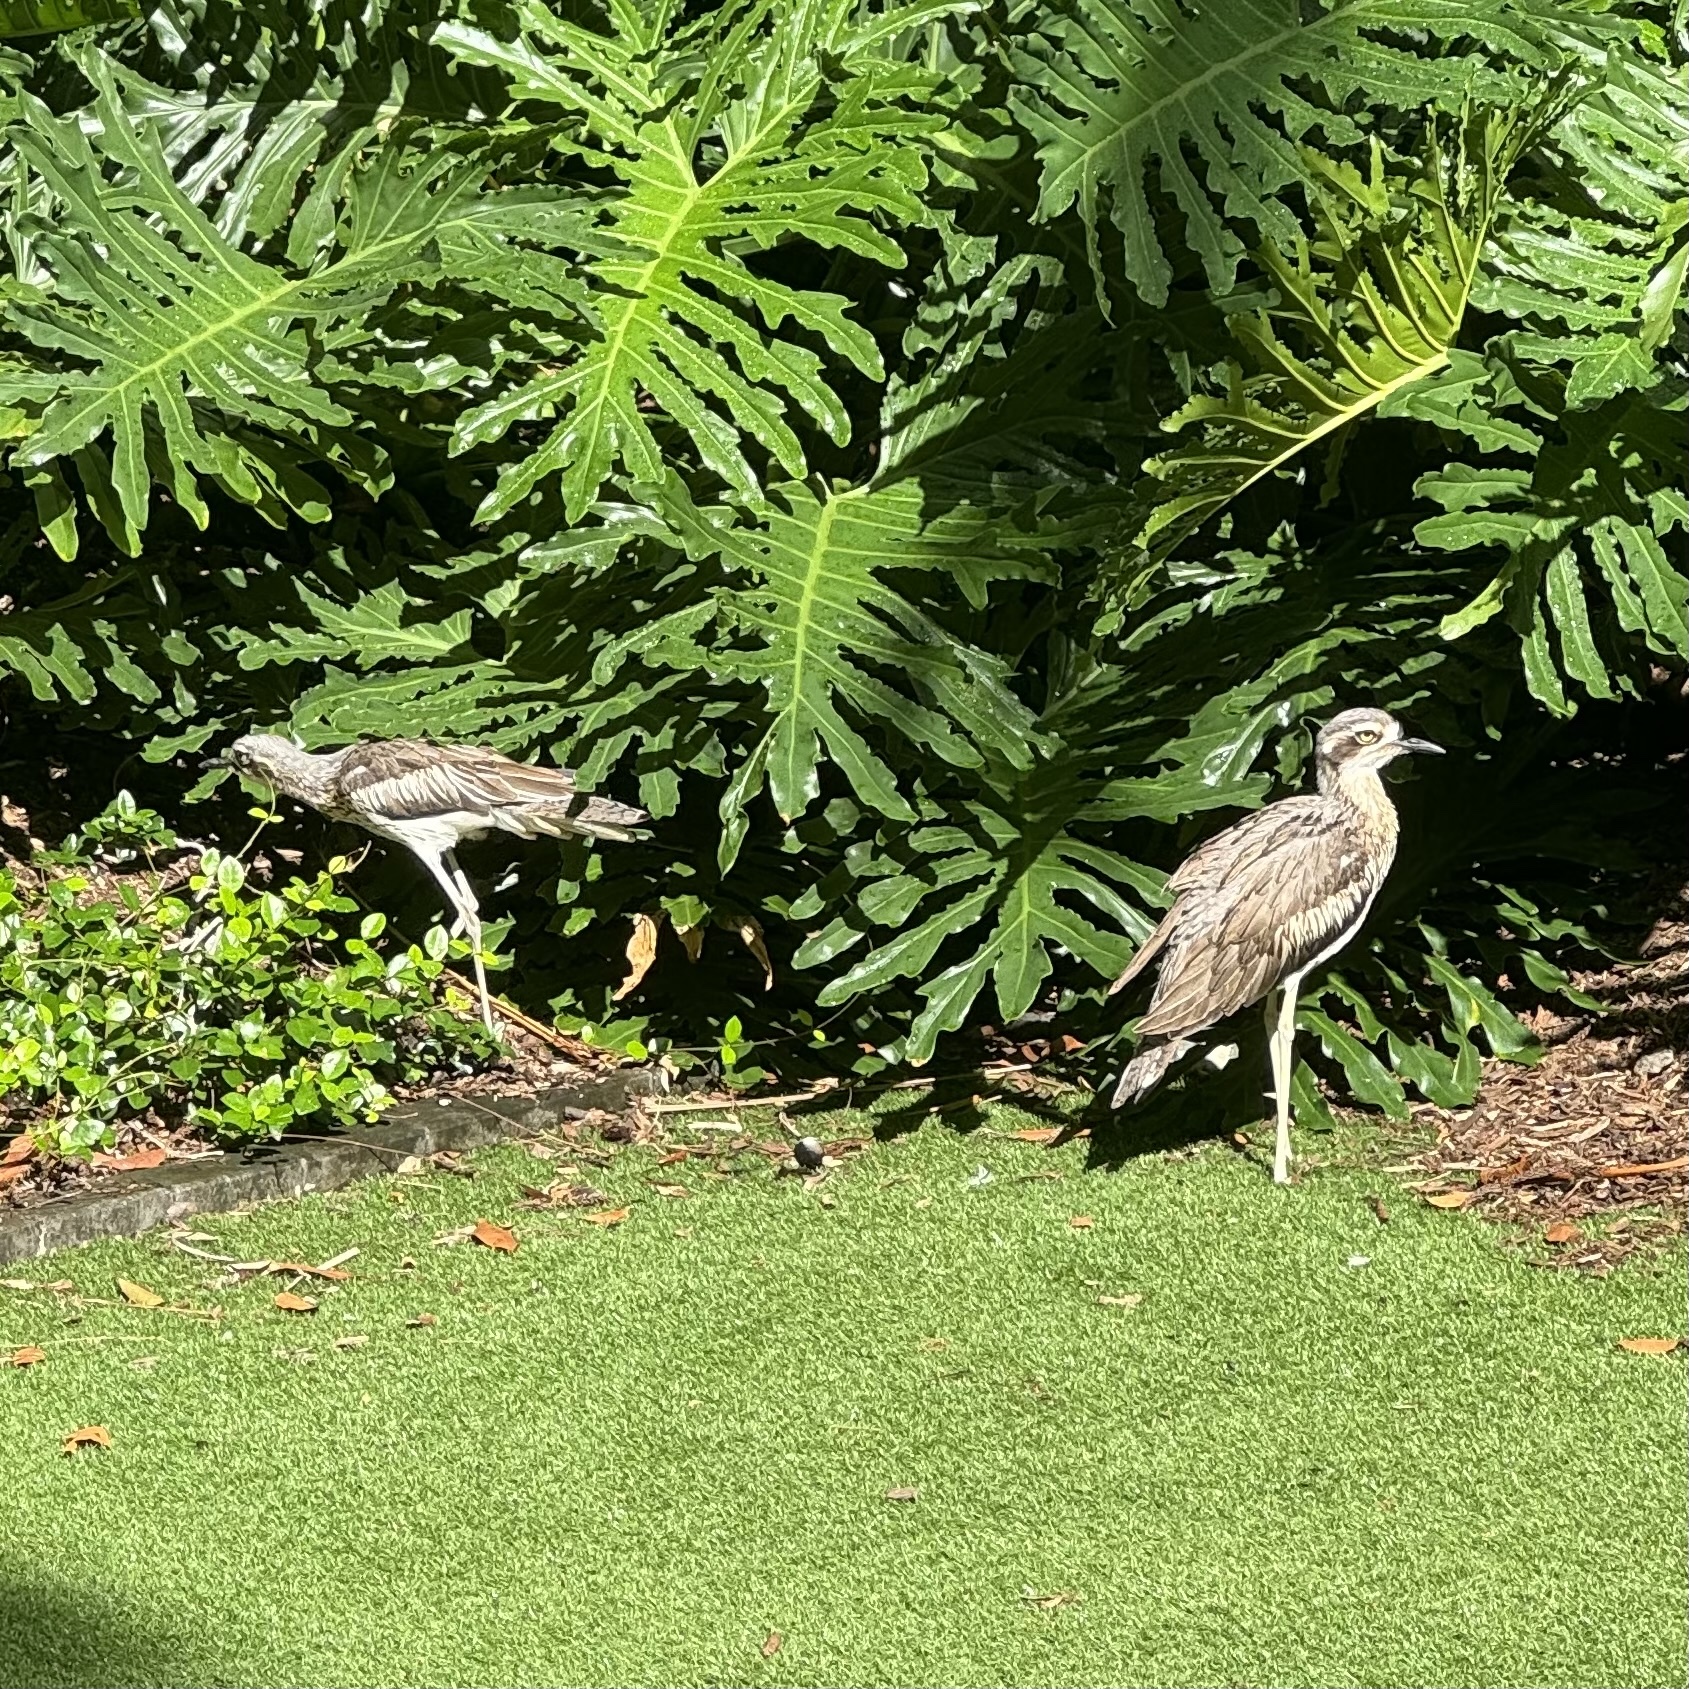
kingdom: Animalia
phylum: Chordata
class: Aves
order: Charadriiformes
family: Burhinidae
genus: Burhinus
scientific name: Burhinus grallarius
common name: Bush stone-curlew
